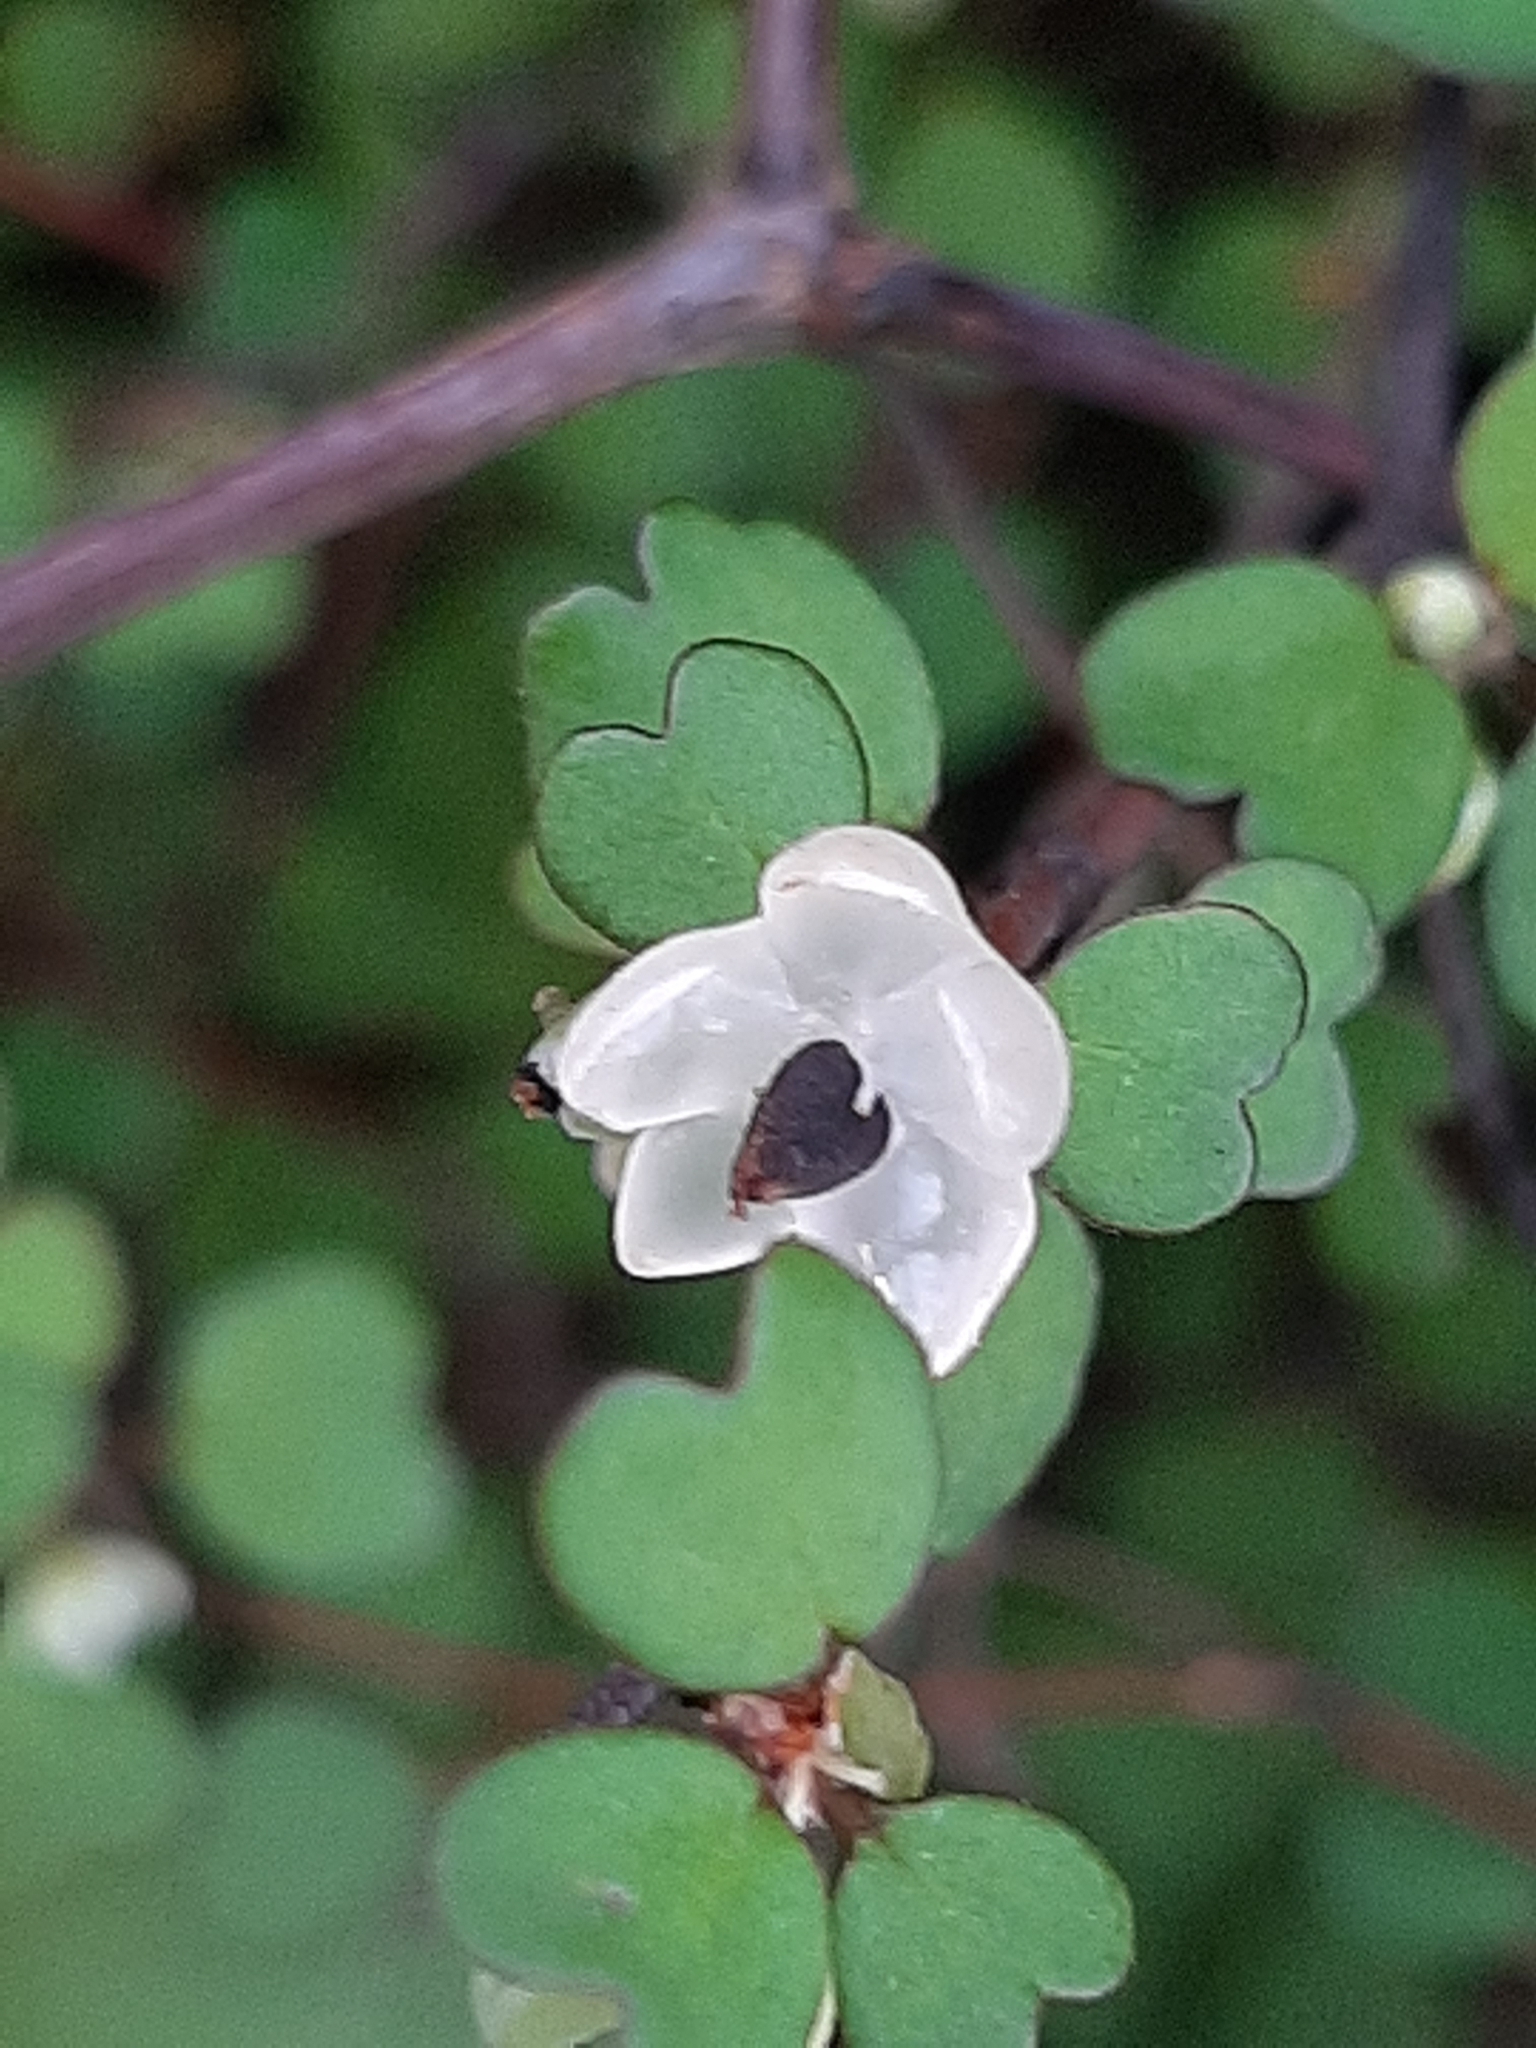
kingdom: Plantae
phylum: Tracheophyta
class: Magnoliopsida
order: Caryophyllales
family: Polygonaceae
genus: Muehlenbeckia
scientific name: Muehlenbeckia astonii
